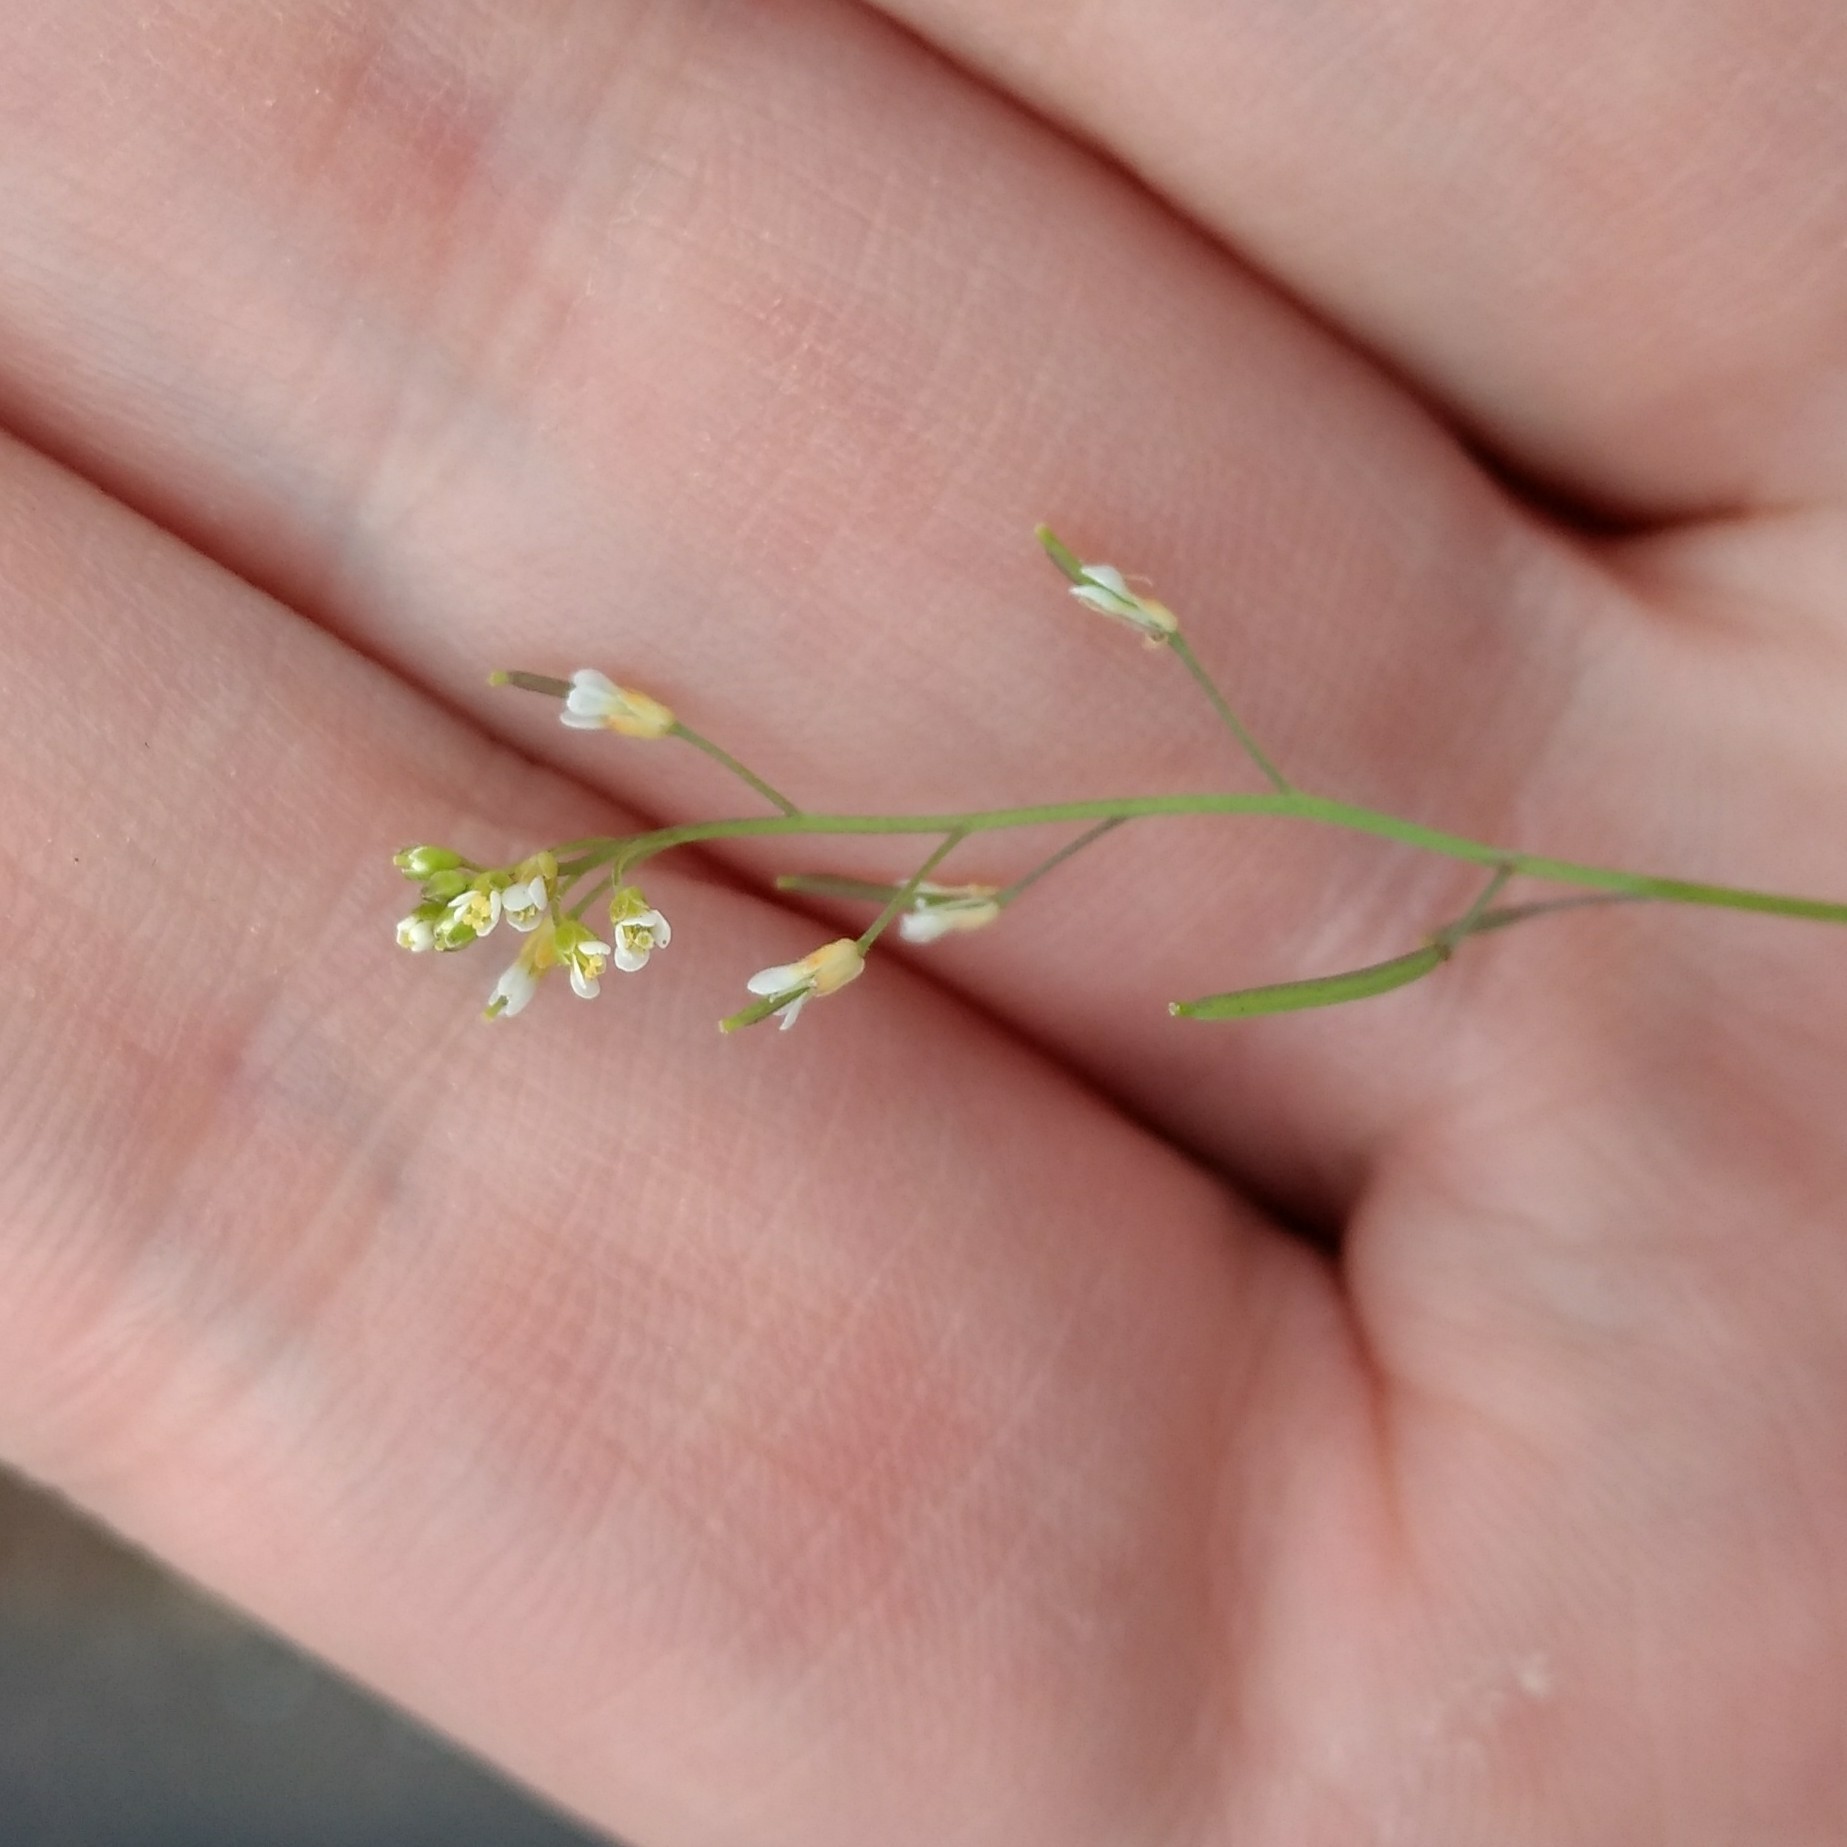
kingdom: Plantae
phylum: Tracheophyta
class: Magnoliopsida
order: Brassicales
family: Brassicaceae
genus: Arabidopsis
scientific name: Arabidopsis thaliana
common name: Thale cress
